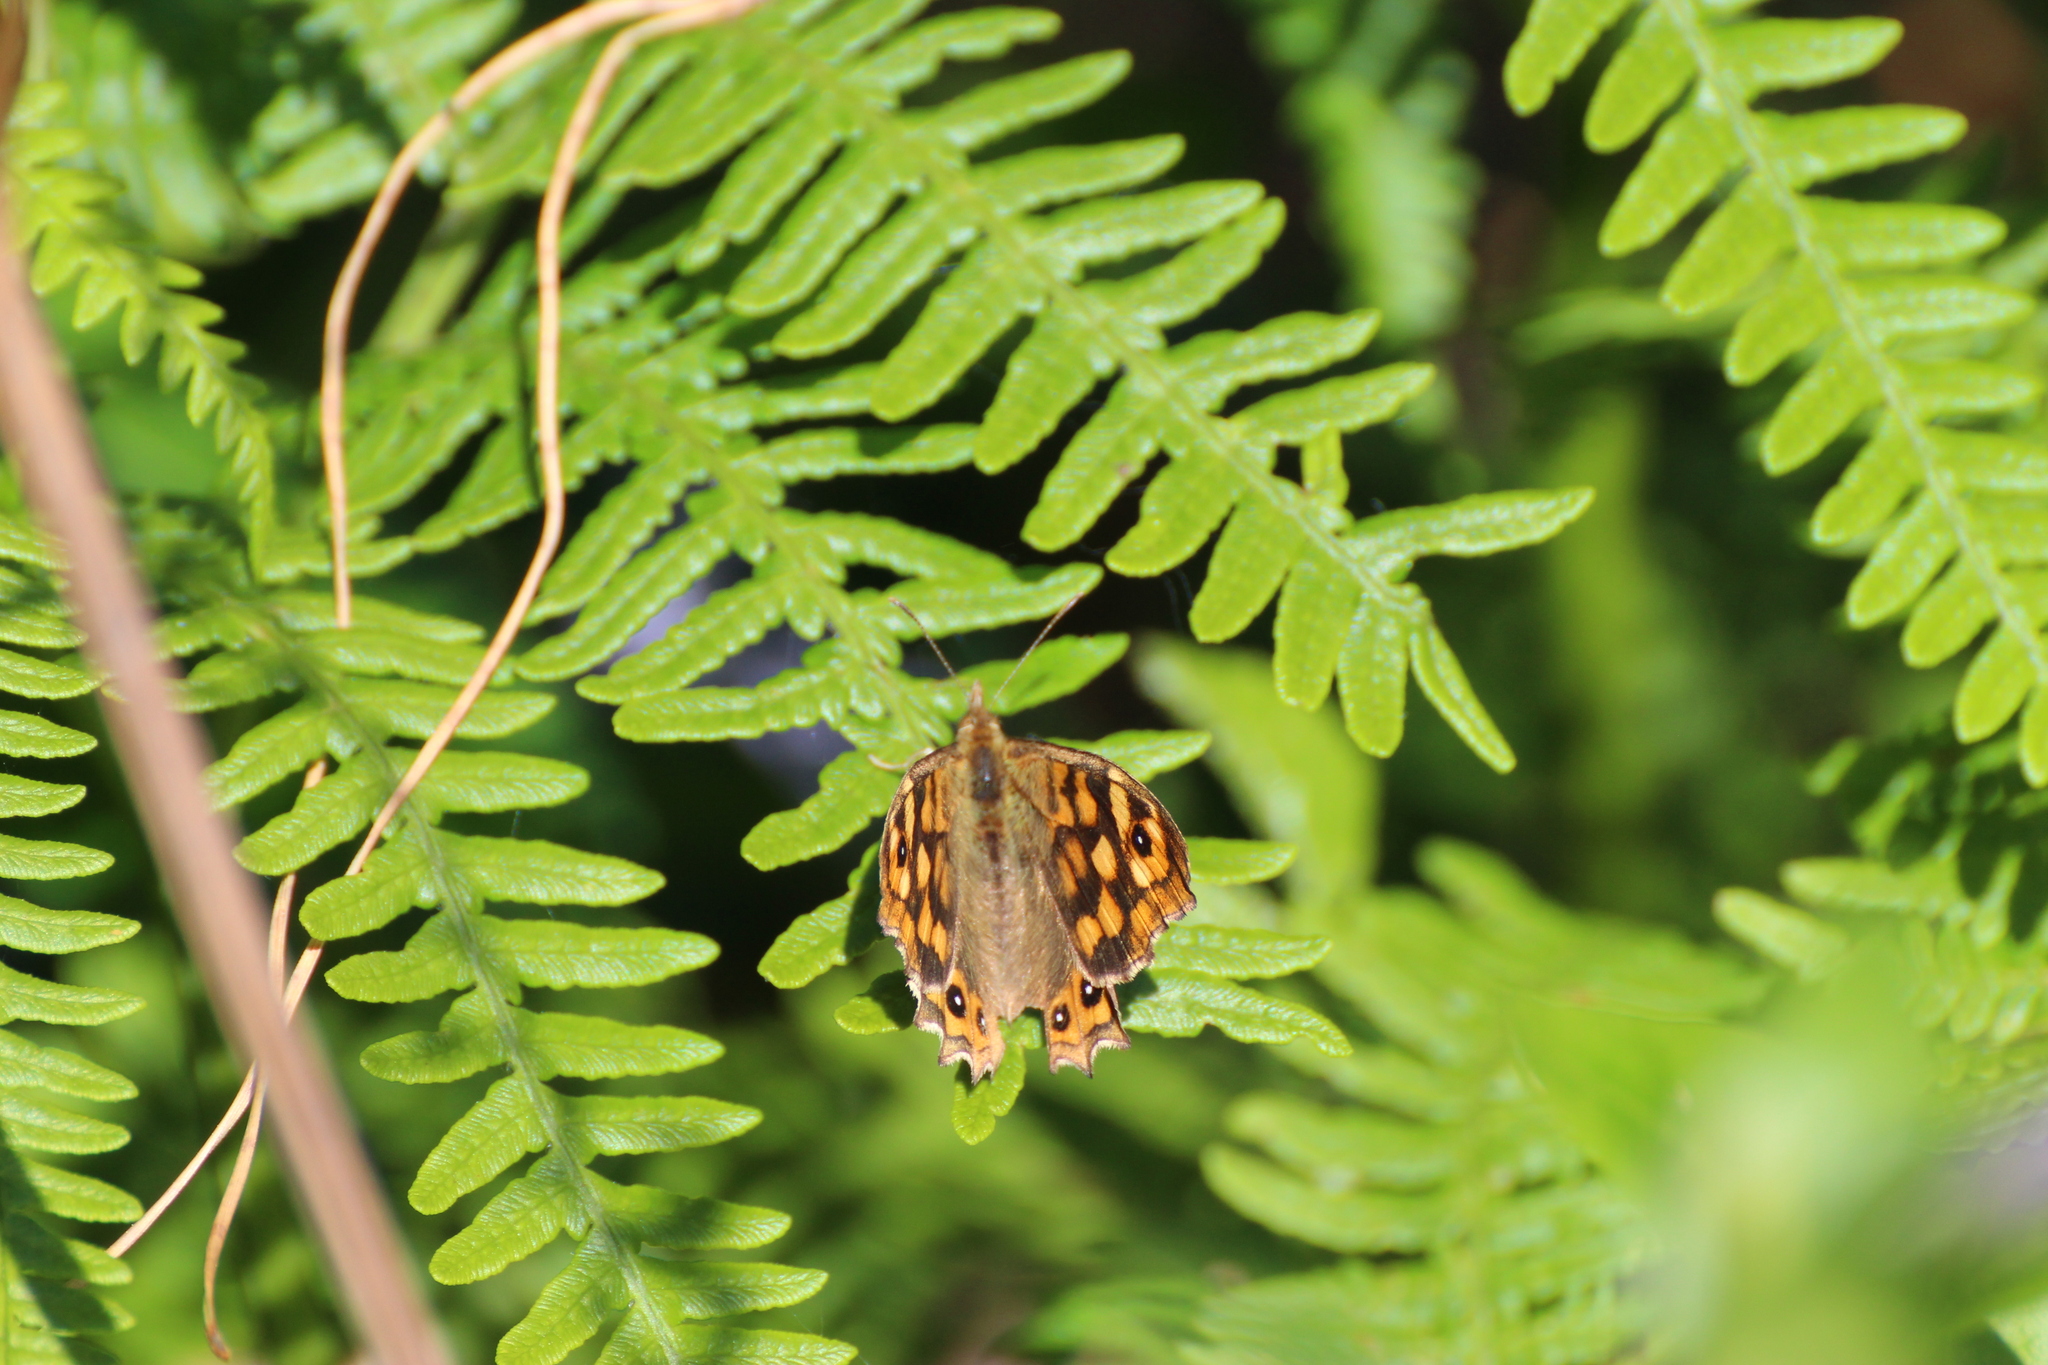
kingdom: Animalia
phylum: Arthropoda
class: Insecta
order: Lepidoptera
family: Nymphalidae
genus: Pararge
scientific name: Pararge aegeria
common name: Speckled wood
